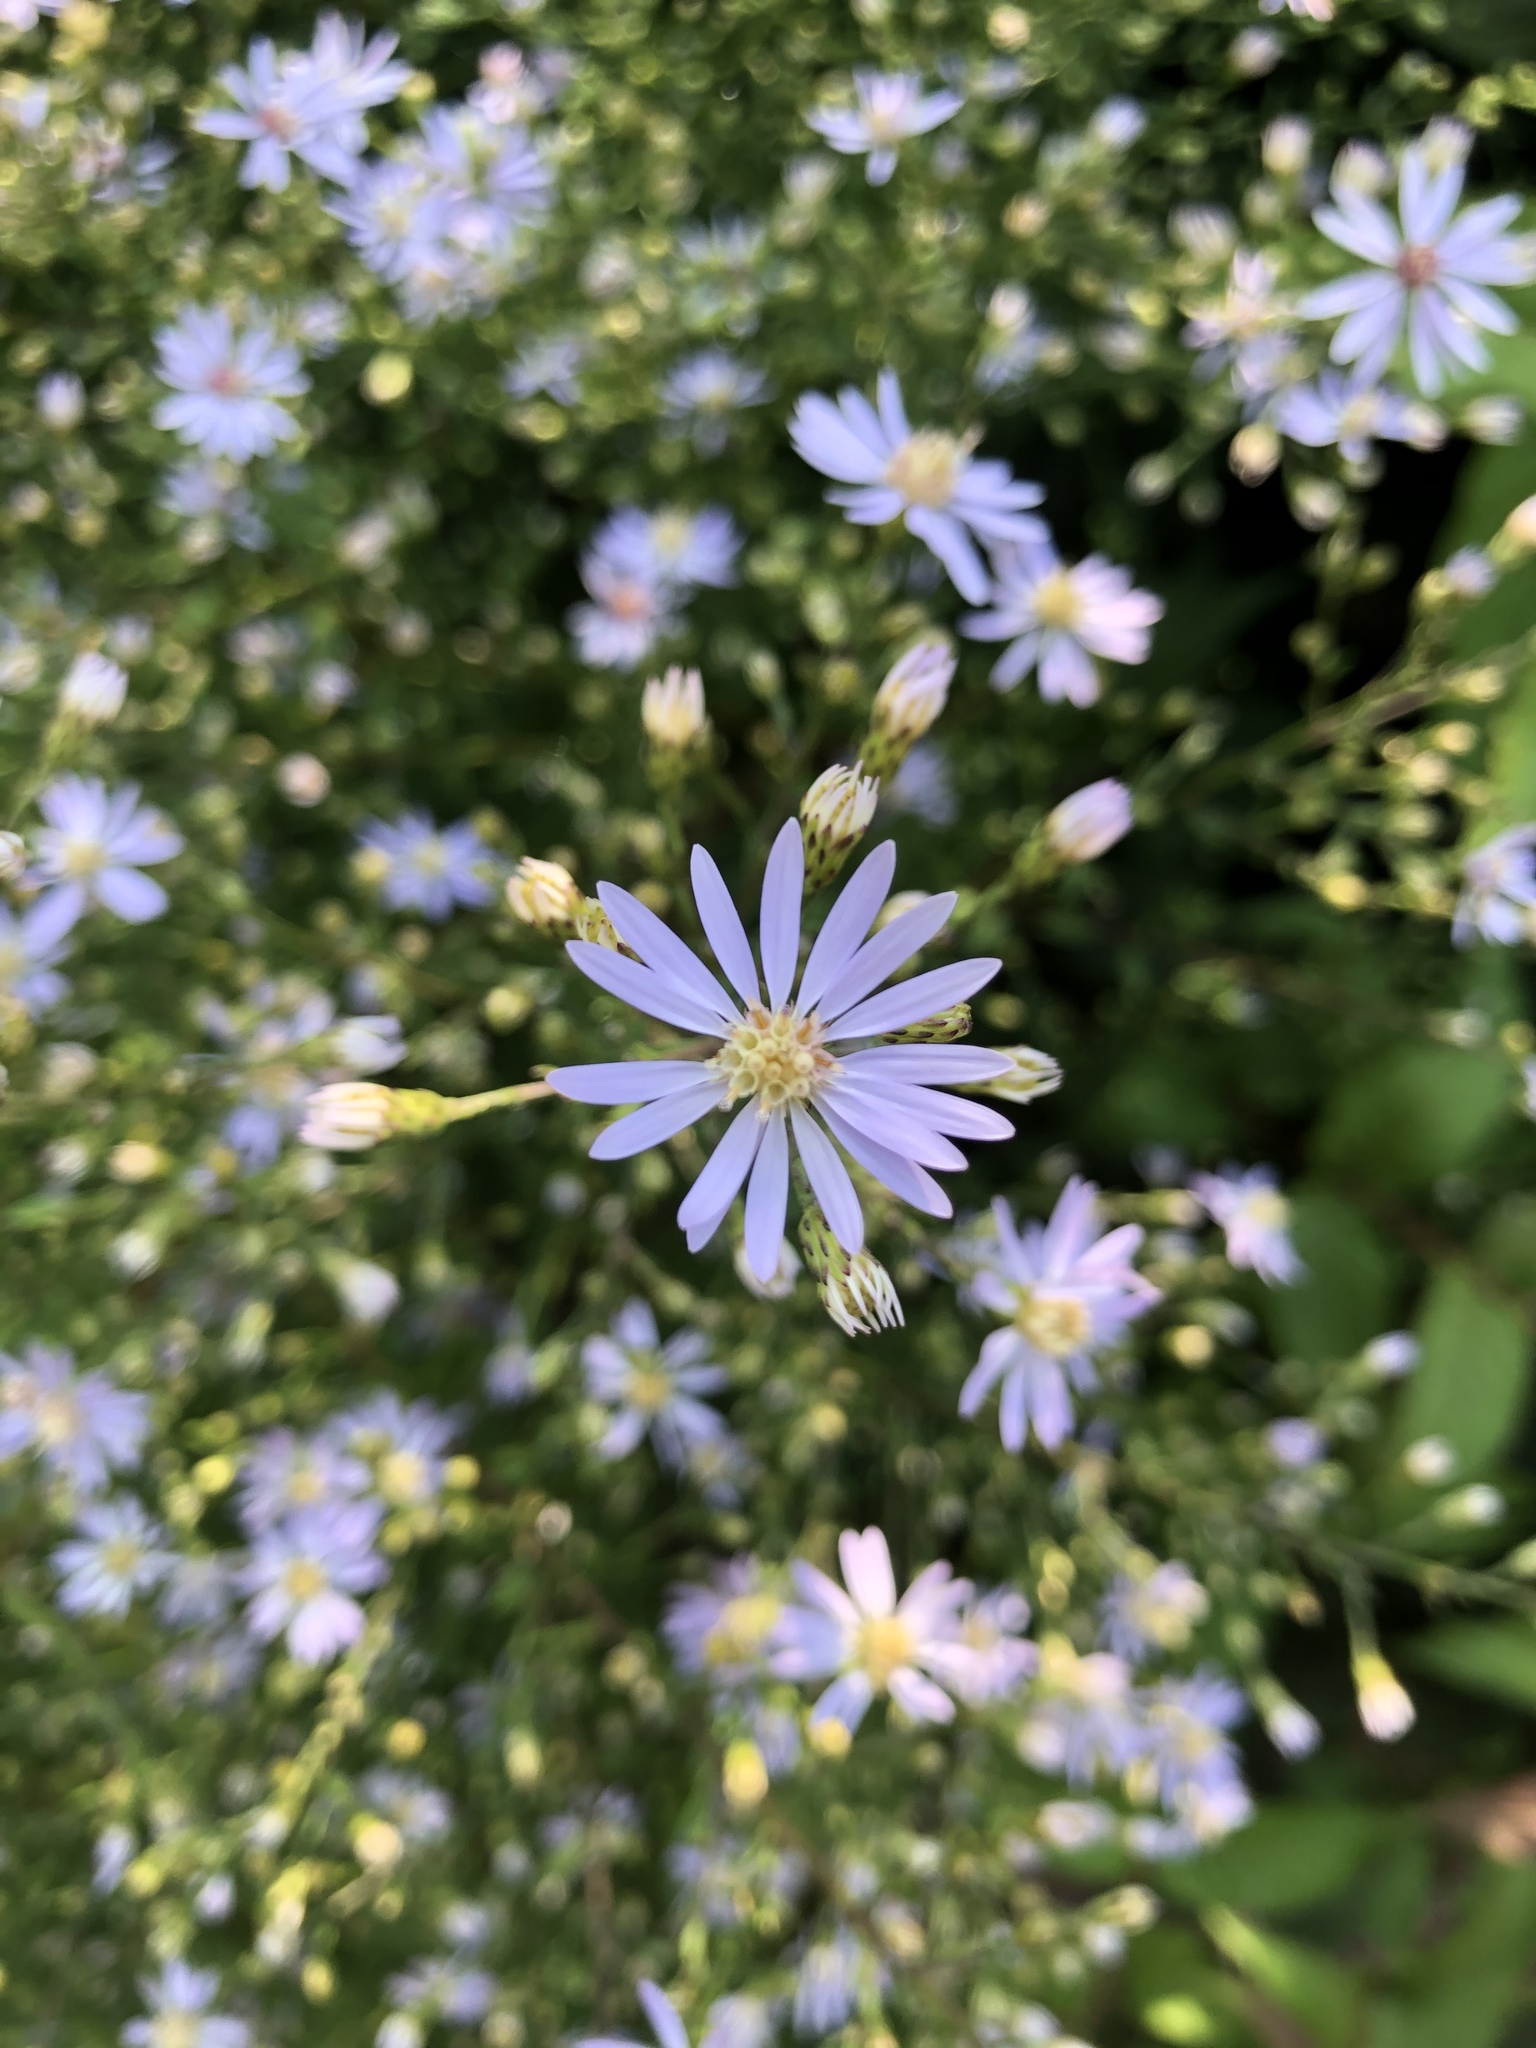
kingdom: Plantae
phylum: Tracheophyta
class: Magnoliopsida
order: Asterales
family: Asteraceae
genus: Symphyotrichum
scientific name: Symphyotrichum urophyllum
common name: Arrow-leaved aster
